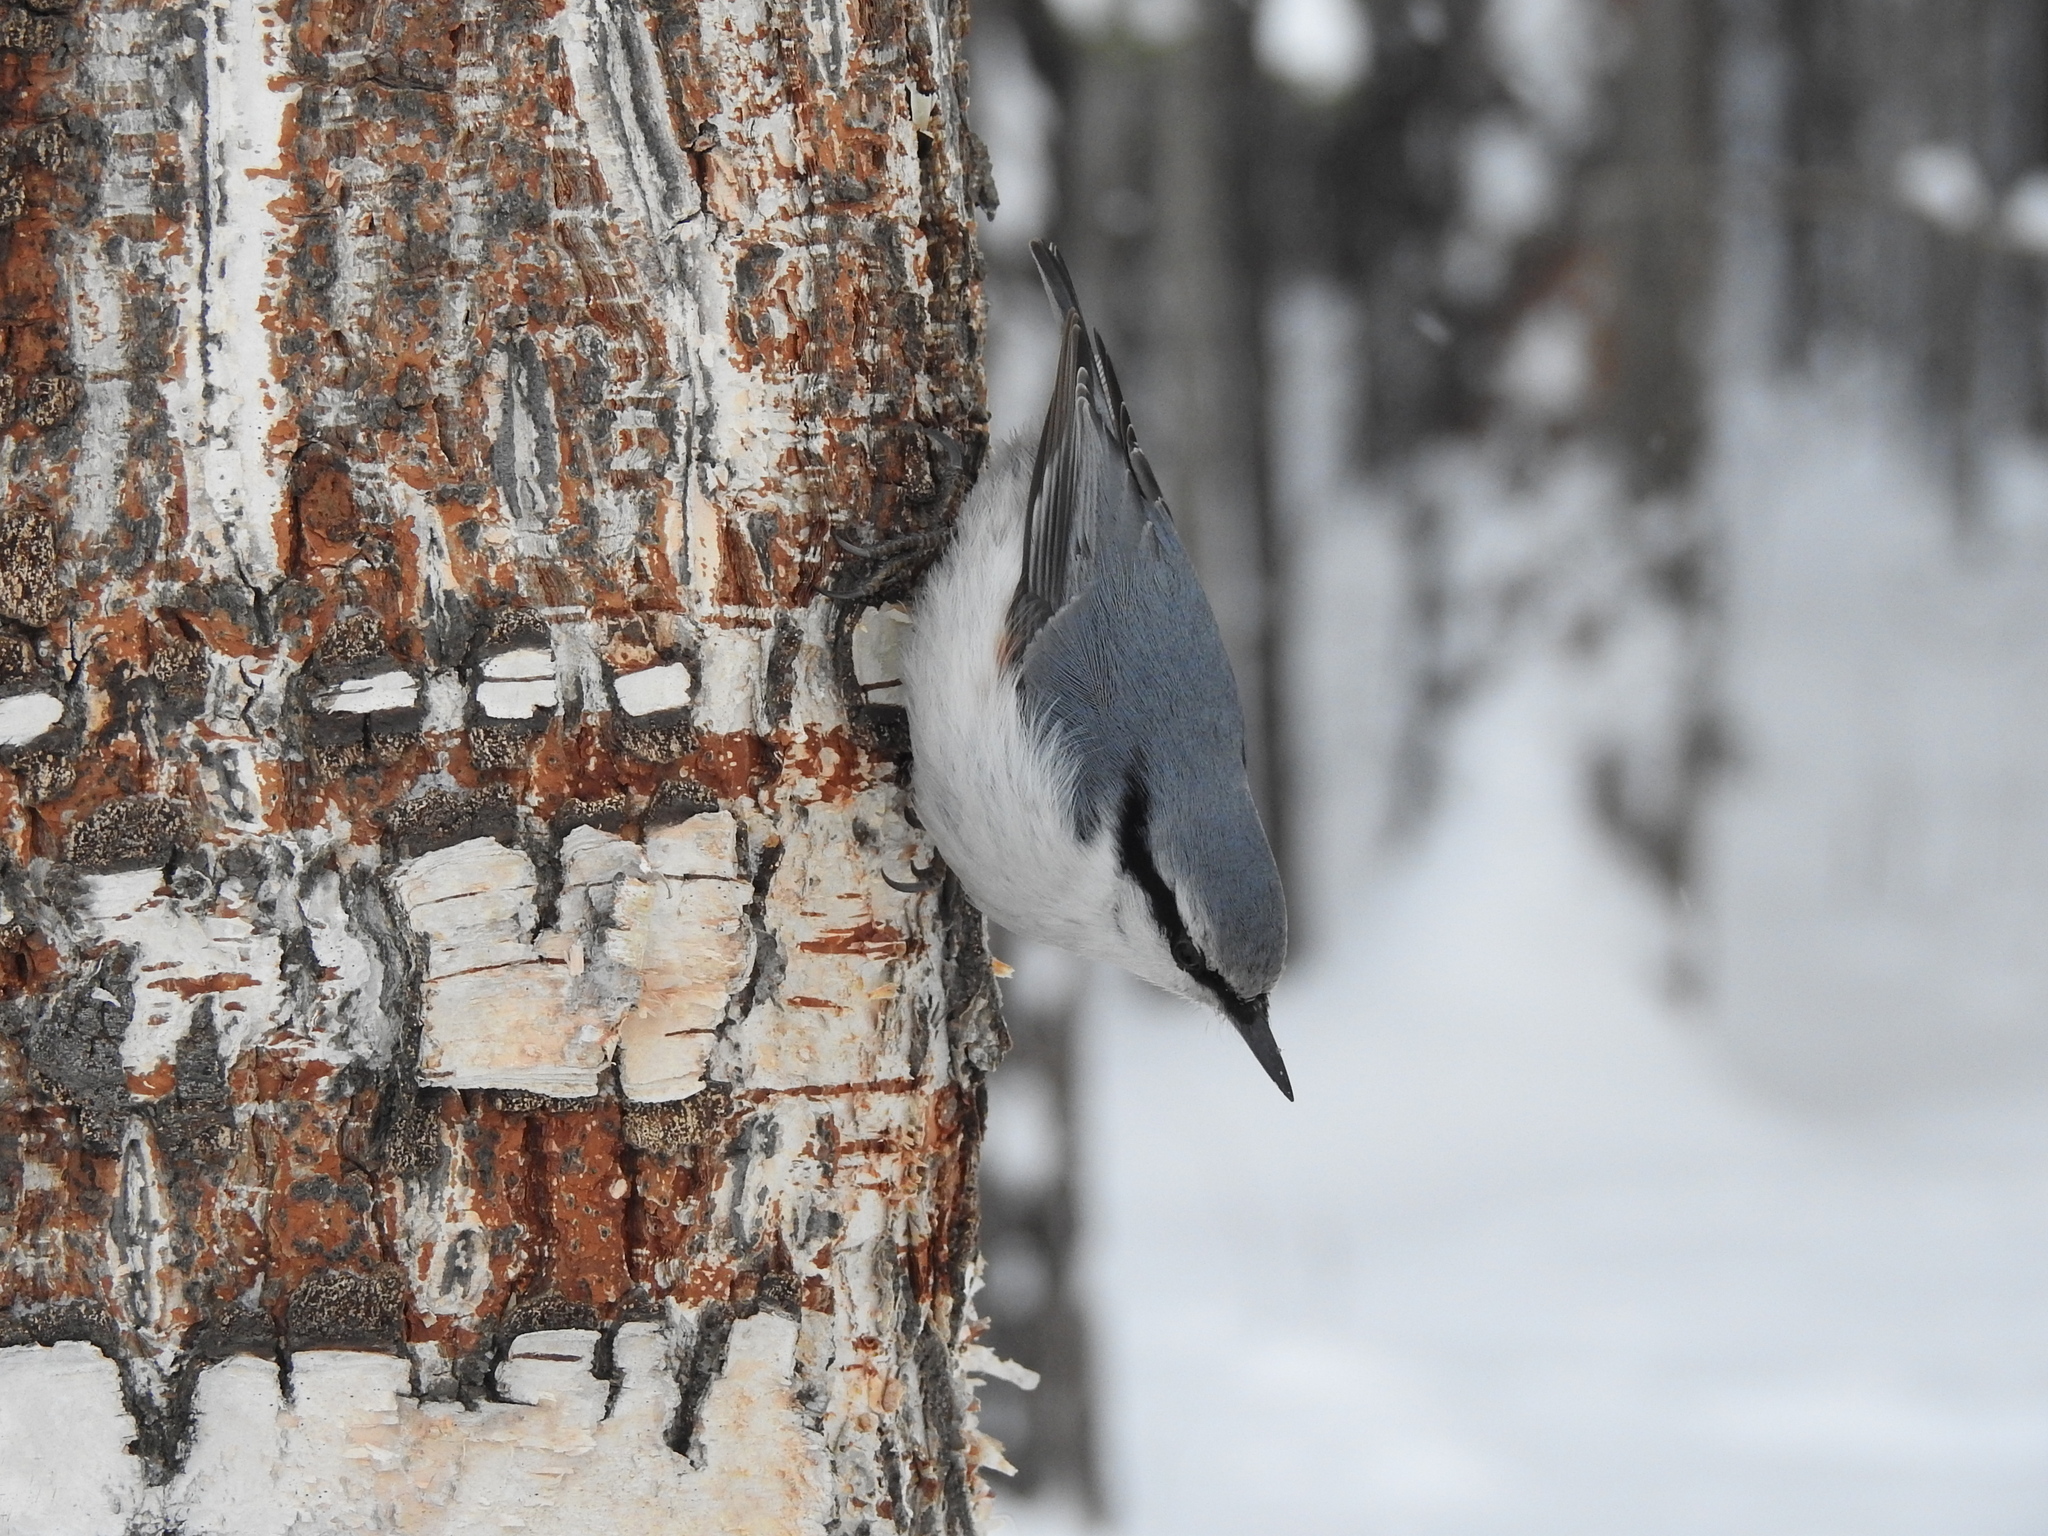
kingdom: Animalia
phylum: Chordata
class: Aves
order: Passeriformes
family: Sittidae
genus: Sitta
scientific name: Sitta europaea
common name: Eurasian nuthatch
